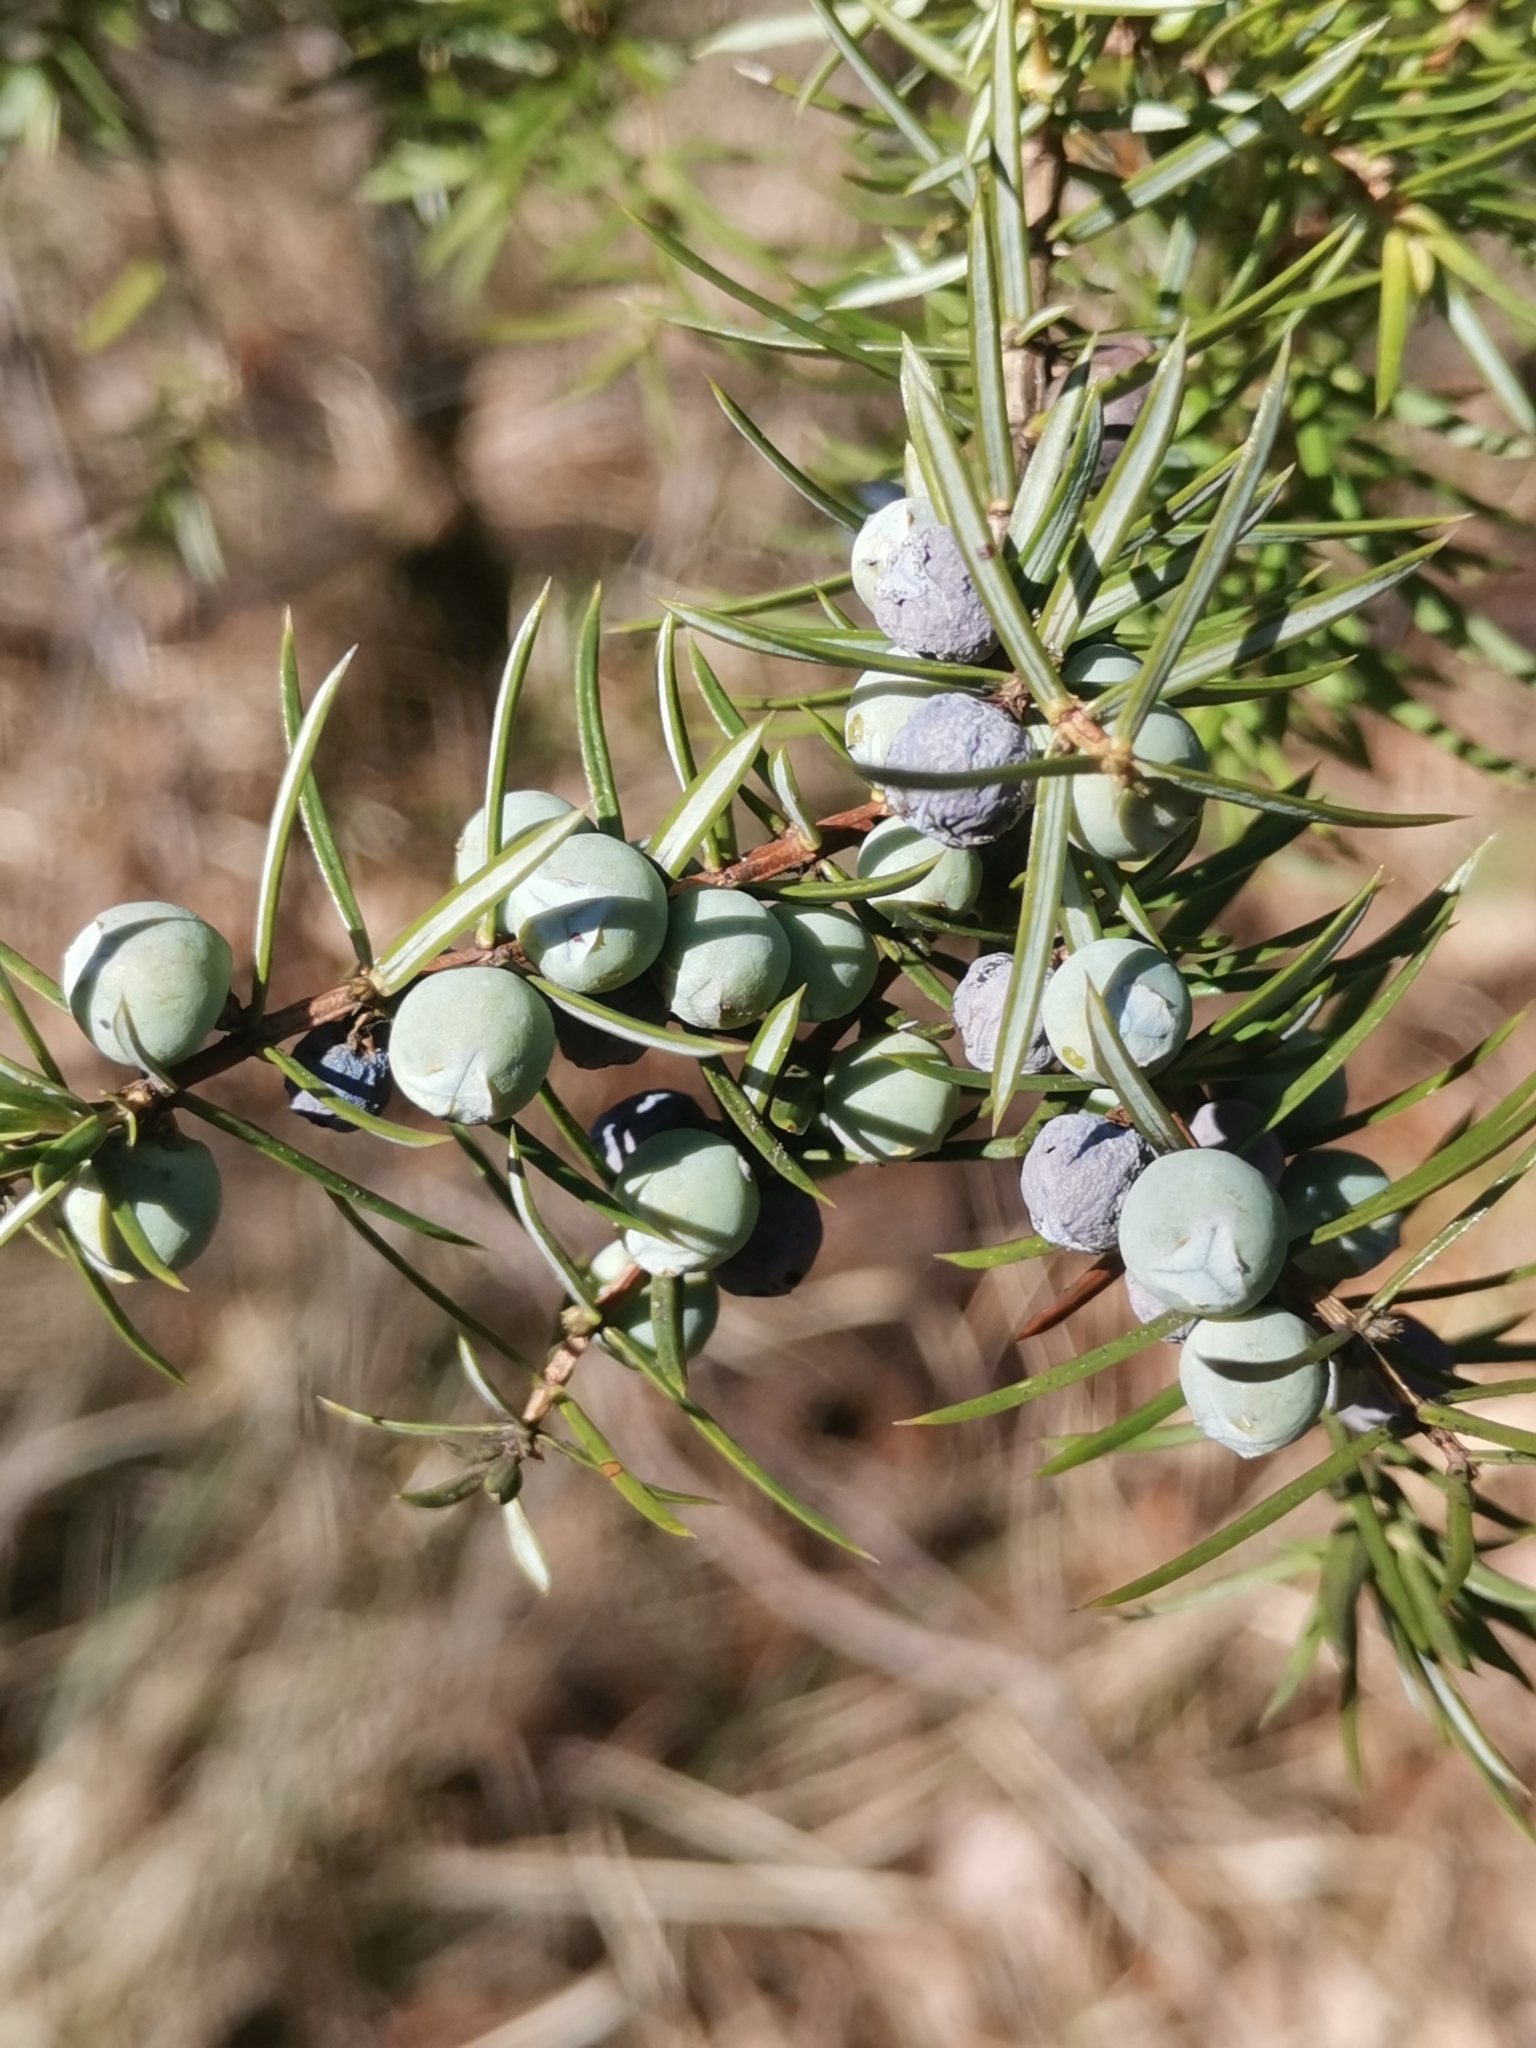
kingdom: Plantae
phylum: Tracheophyta
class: Pinopsida
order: Pinales
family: Cupressaceae
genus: Juniperus
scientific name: Juniperus communis
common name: Common juniper
